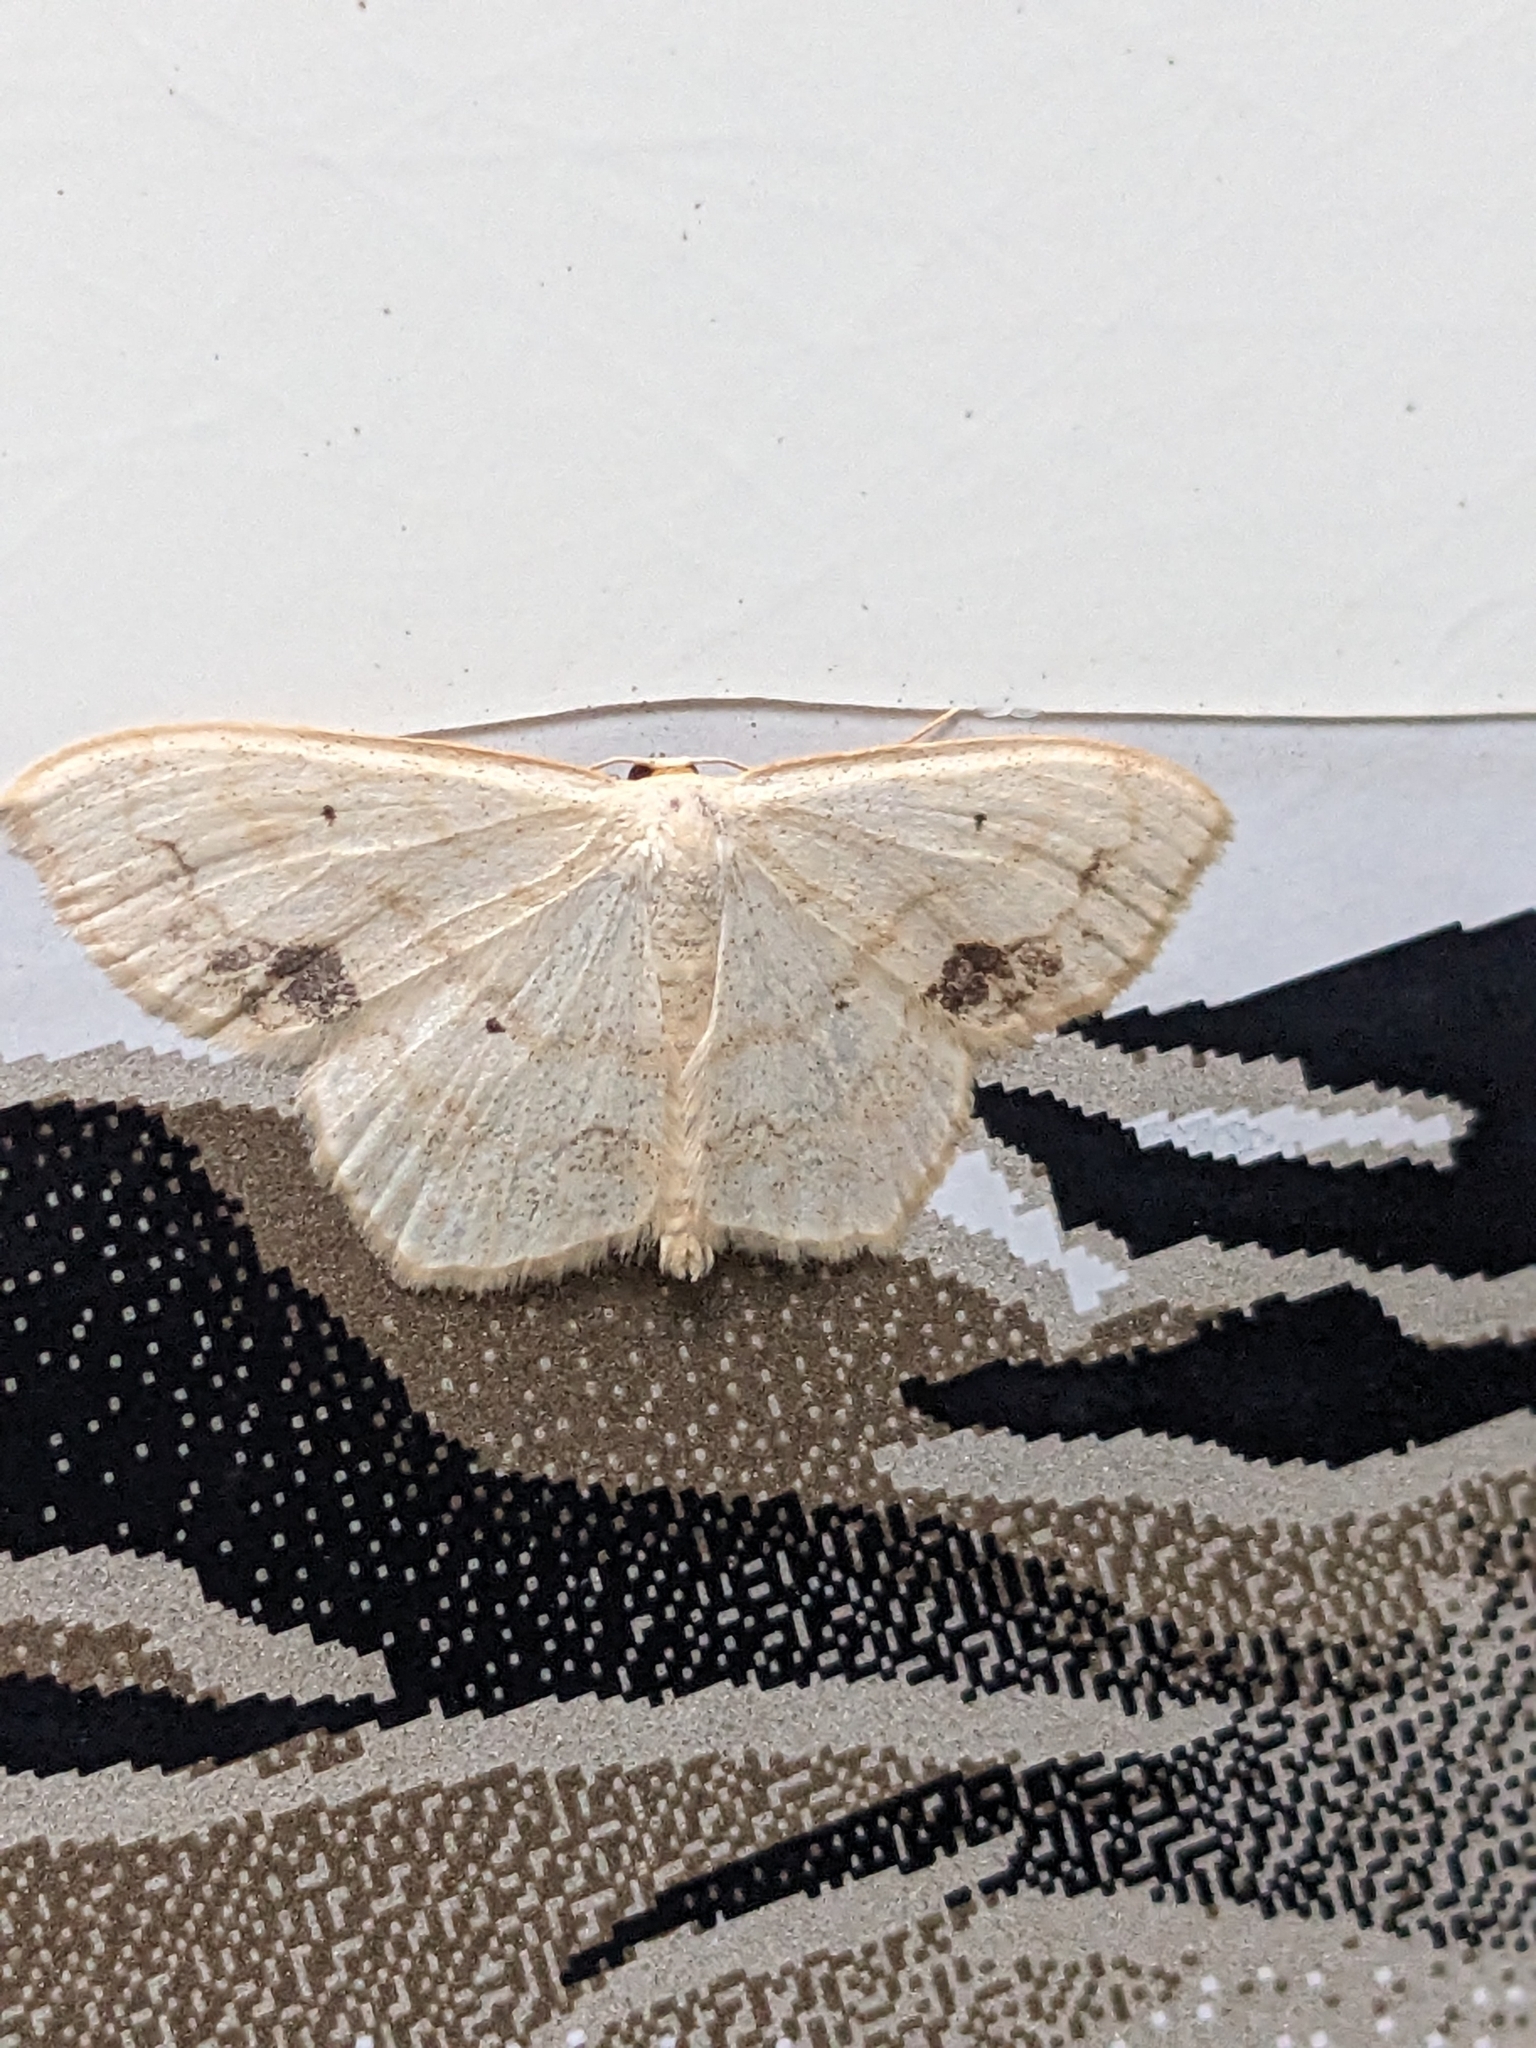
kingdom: Animalia
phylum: Arthropoda
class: Insecta
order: Lepidoptera
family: Geometridae
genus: Scopula
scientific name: Scopula limboundata
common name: Large lace border
